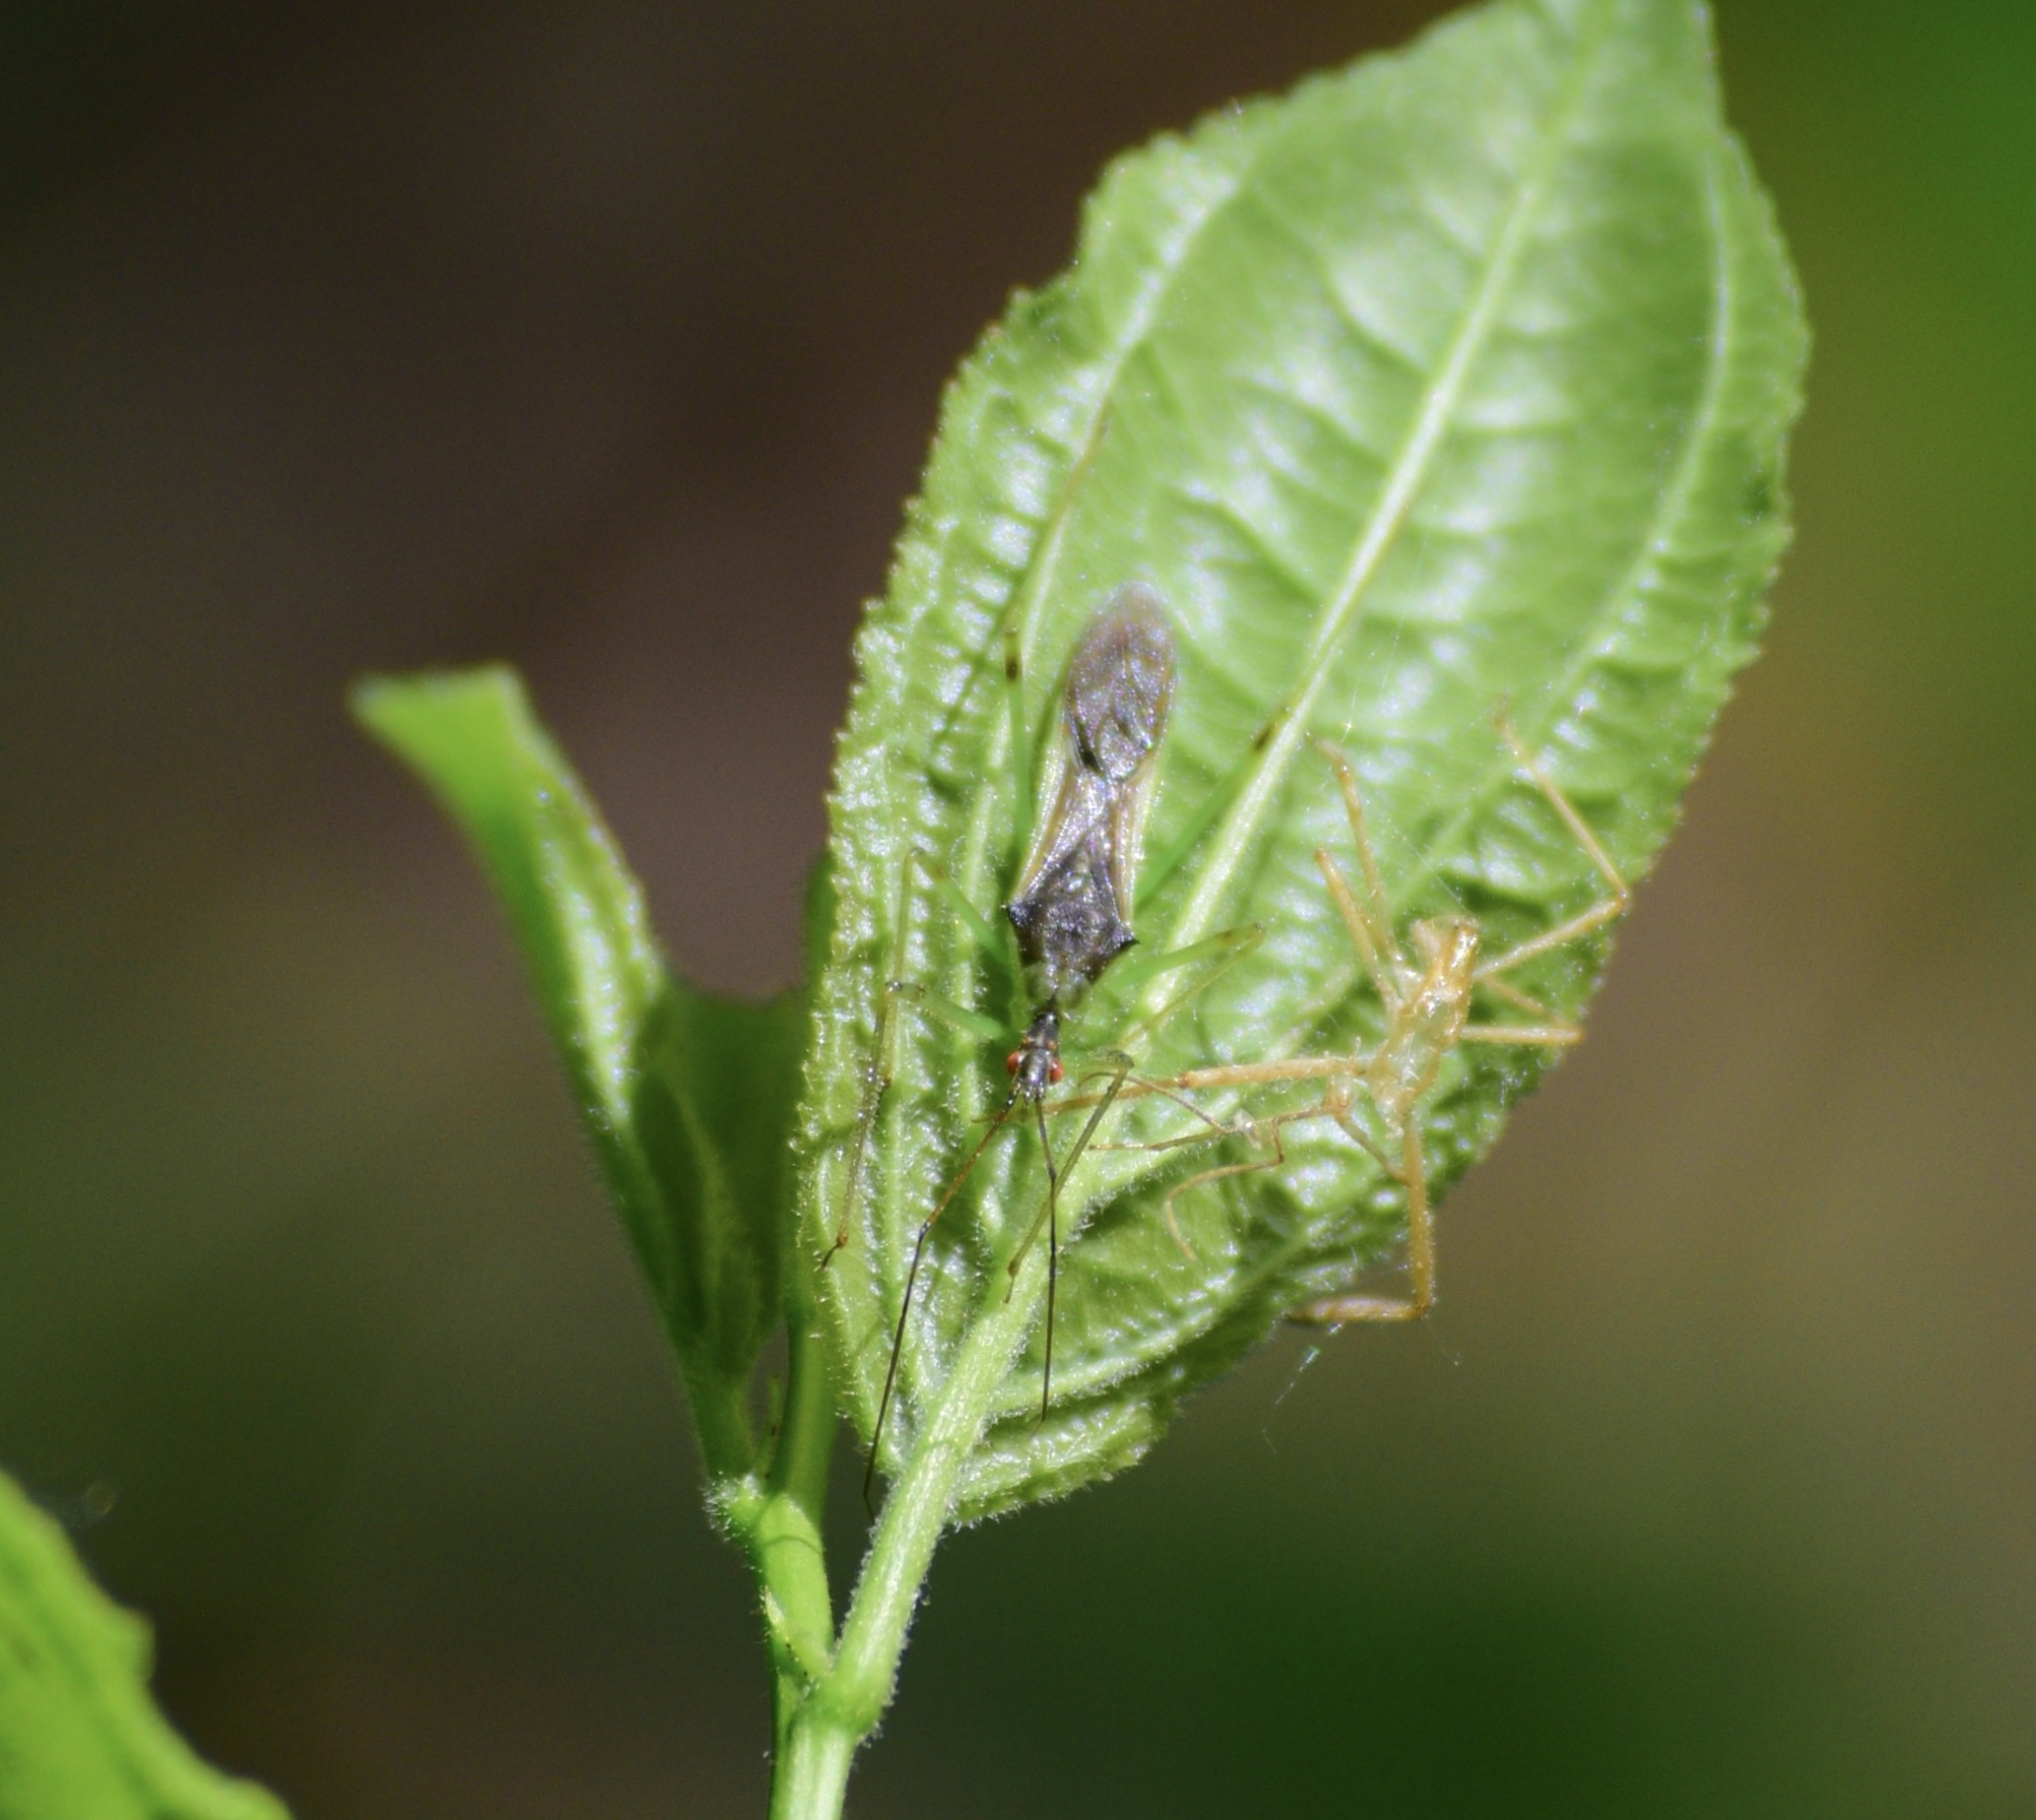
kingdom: Animalia
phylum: Arthropoda
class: Insecta
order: Hemiptera
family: Reduviidae
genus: Zelus
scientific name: Zelus luridus
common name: Pale green assassin bug
